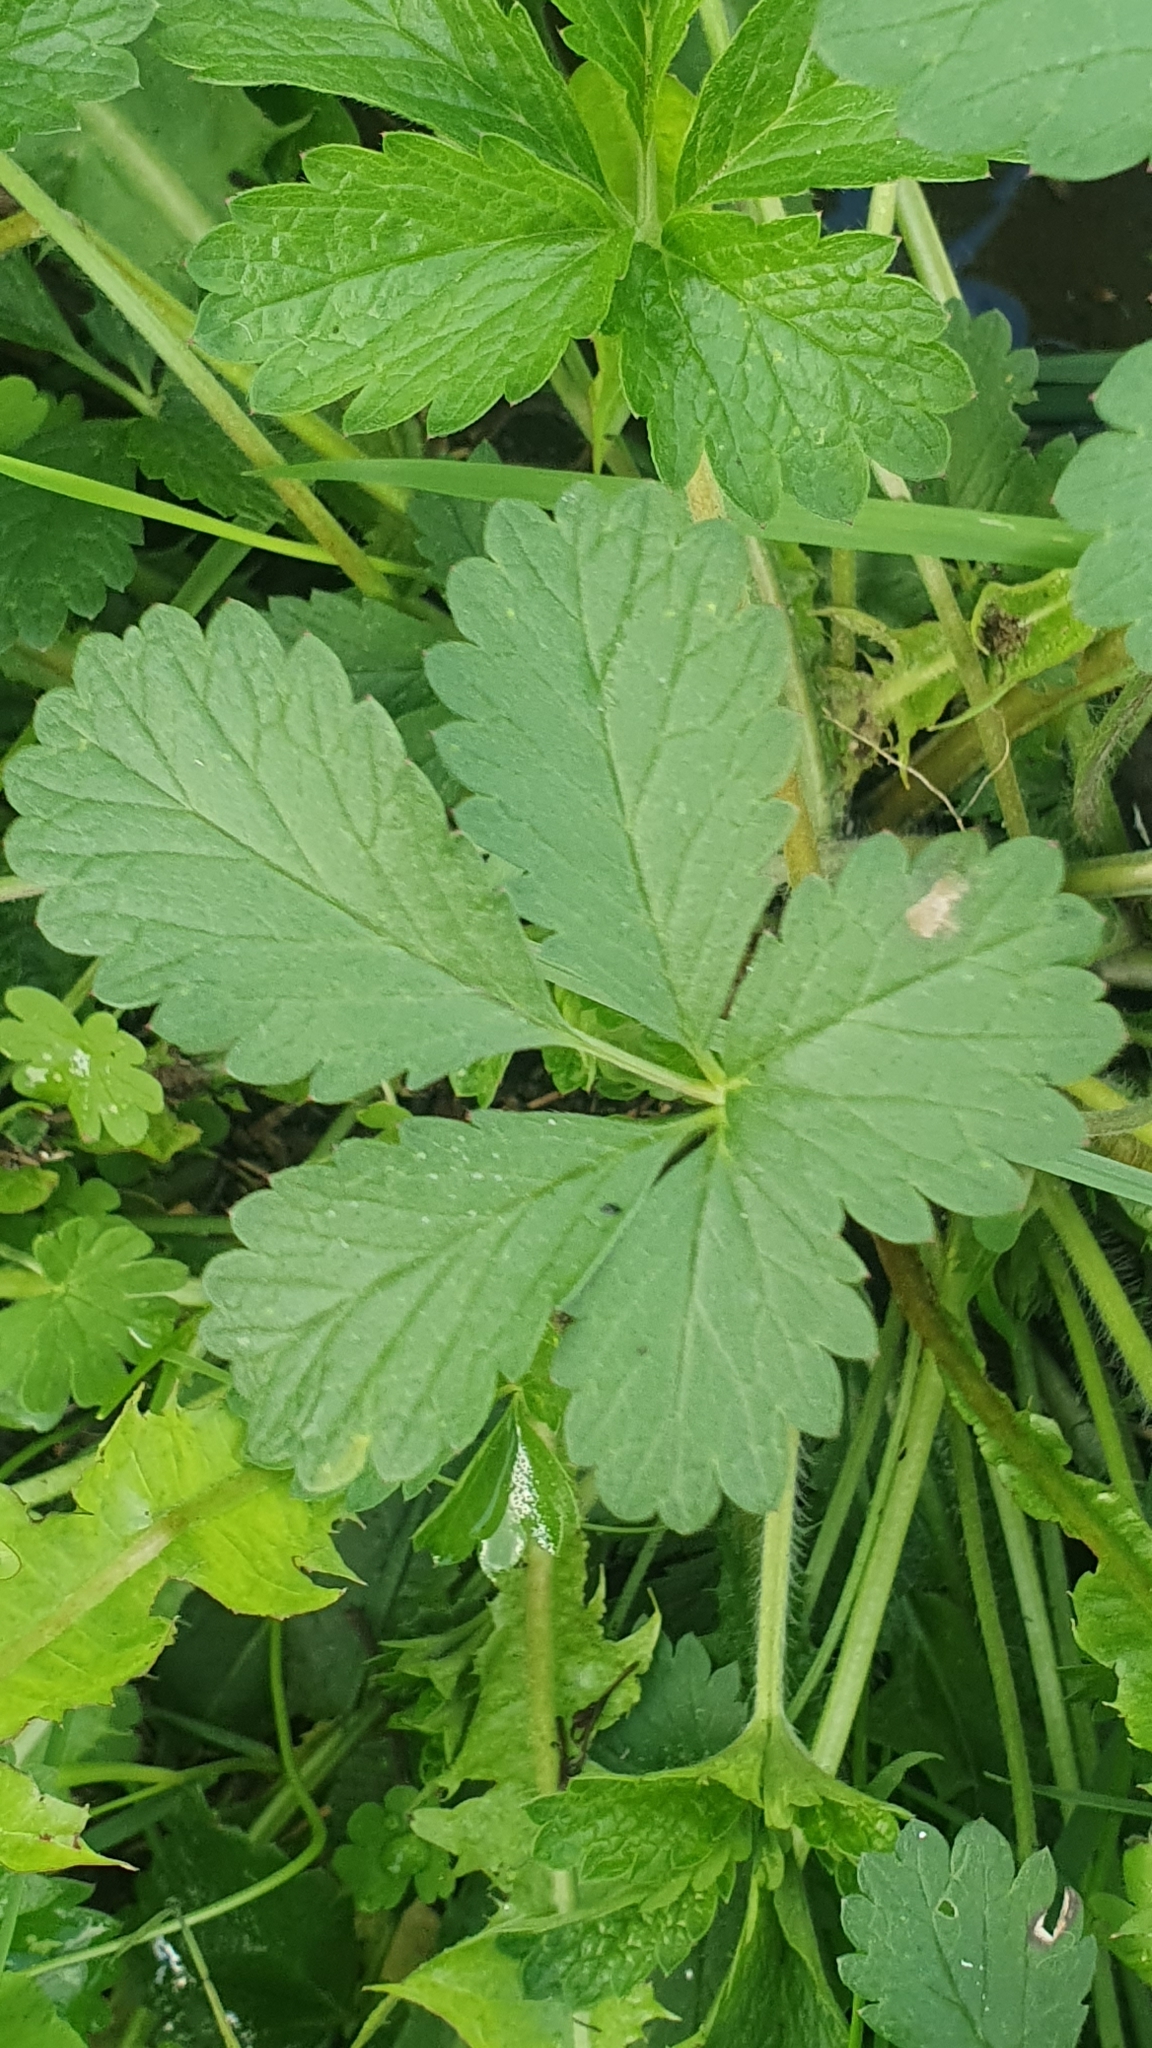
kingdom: Plantae
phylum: Tracheophyta
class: Magnoliopsida
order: Rosales
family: Rosaceae
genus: Potentilla
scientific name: Potentilla intermedia
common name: Downy cinquefoil
